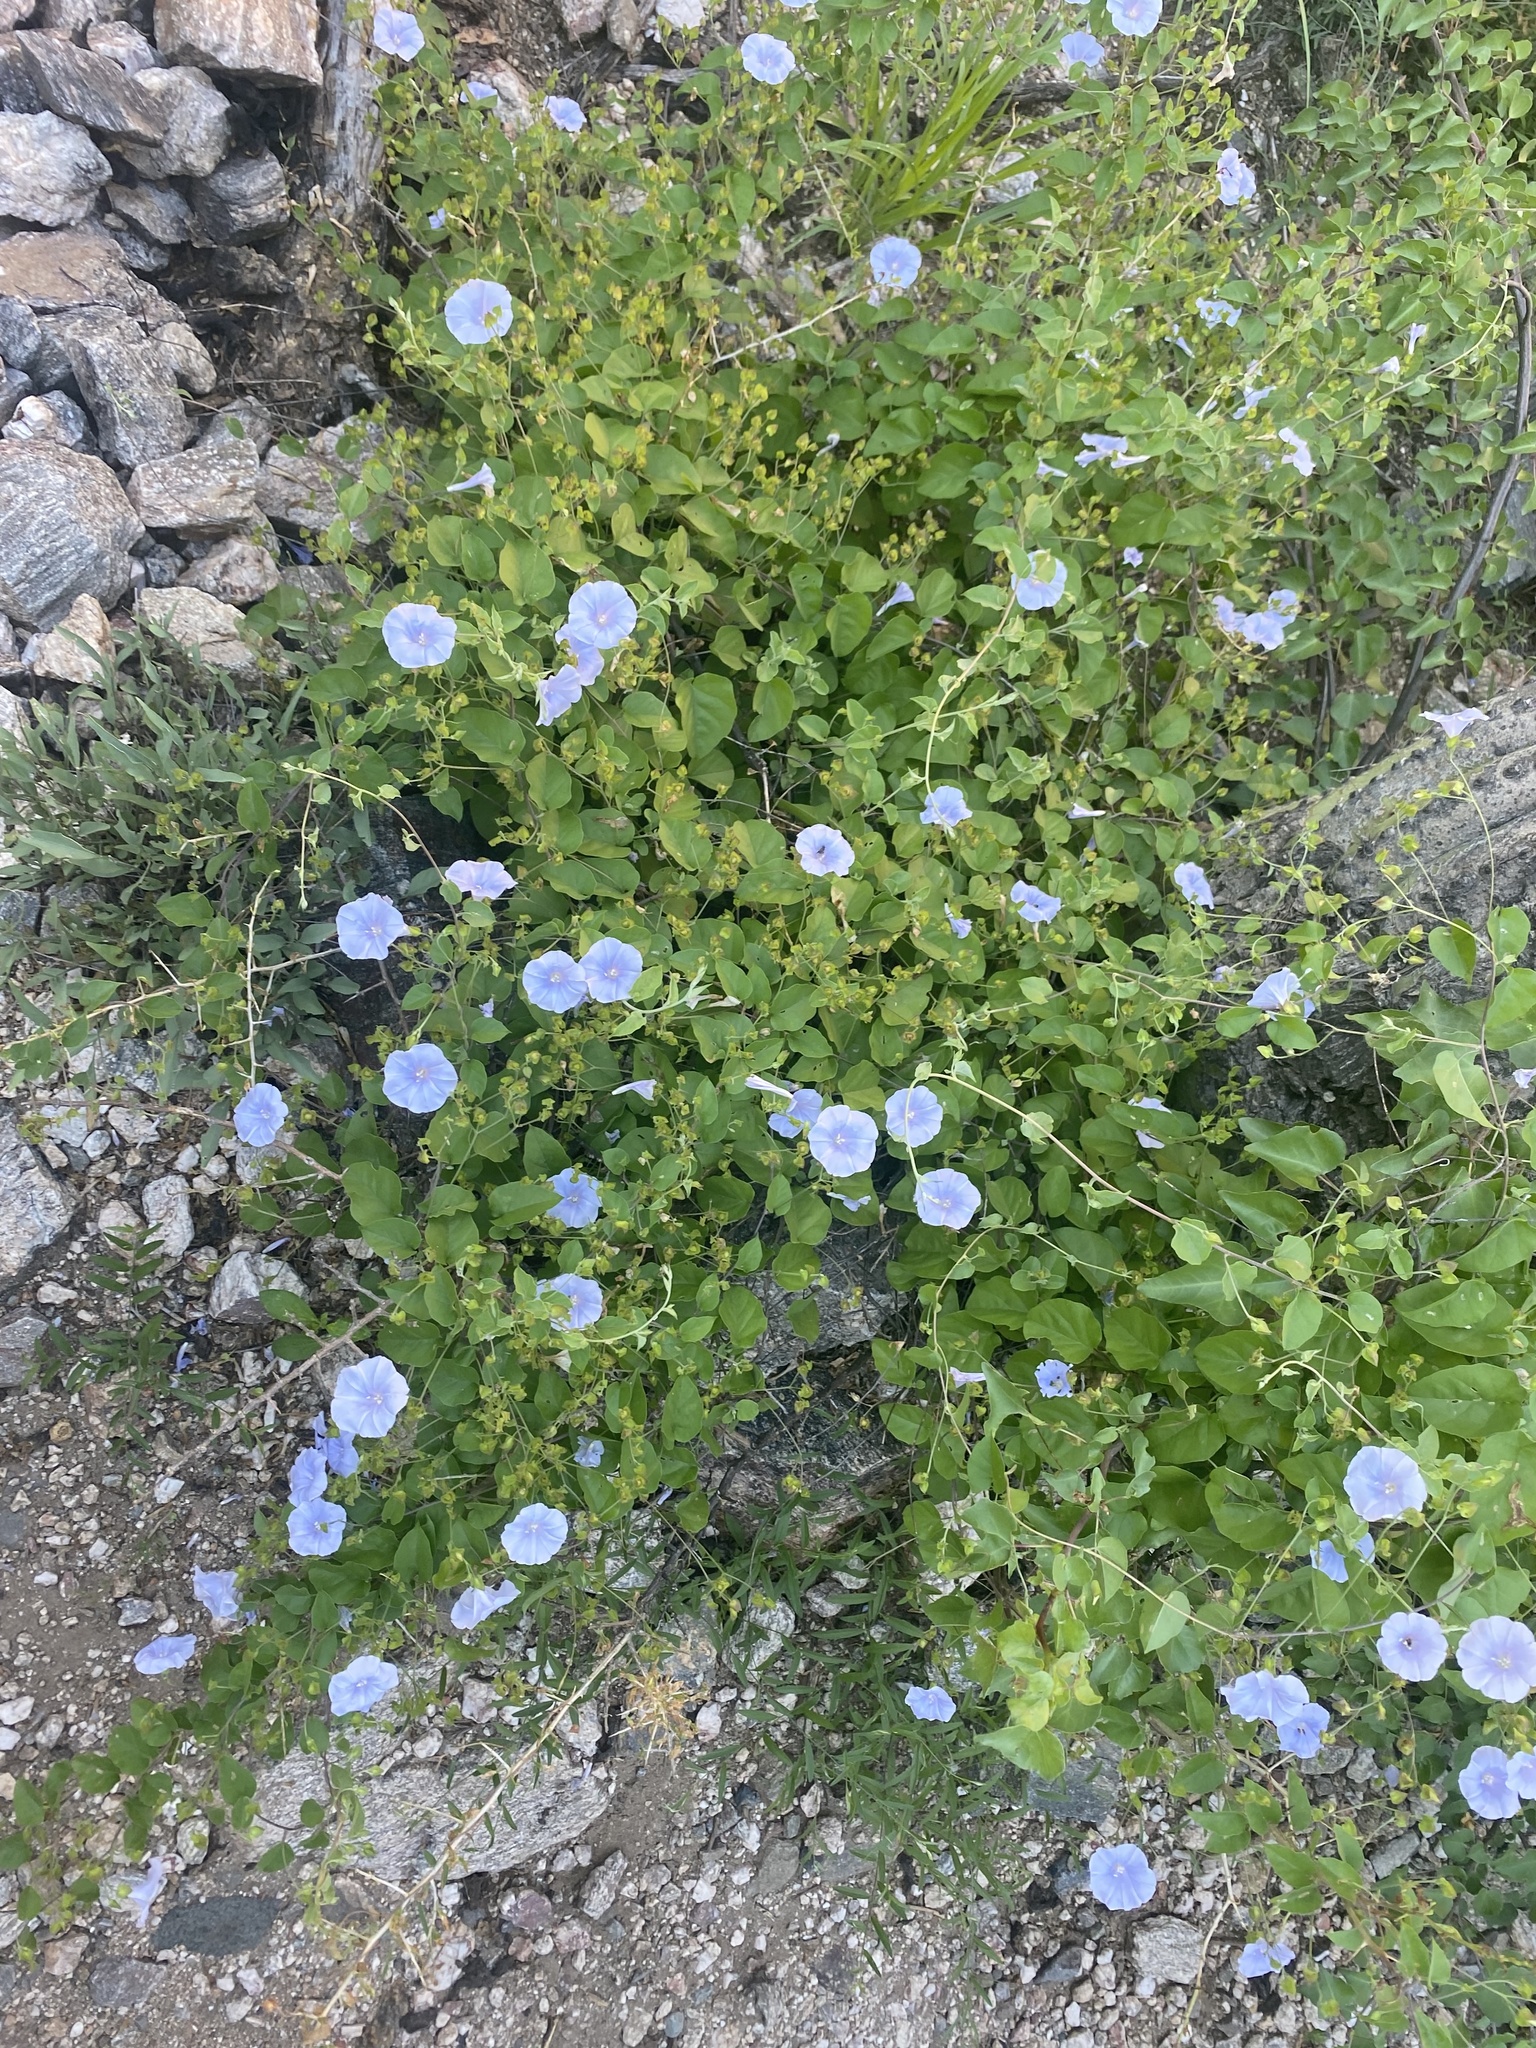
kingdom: Plantae
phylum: Tracheophyta
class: Magnoliopsida
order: Solanales
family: Convolvulaceae
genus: Jacquemontia
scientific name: Jacquemontia pringlei
